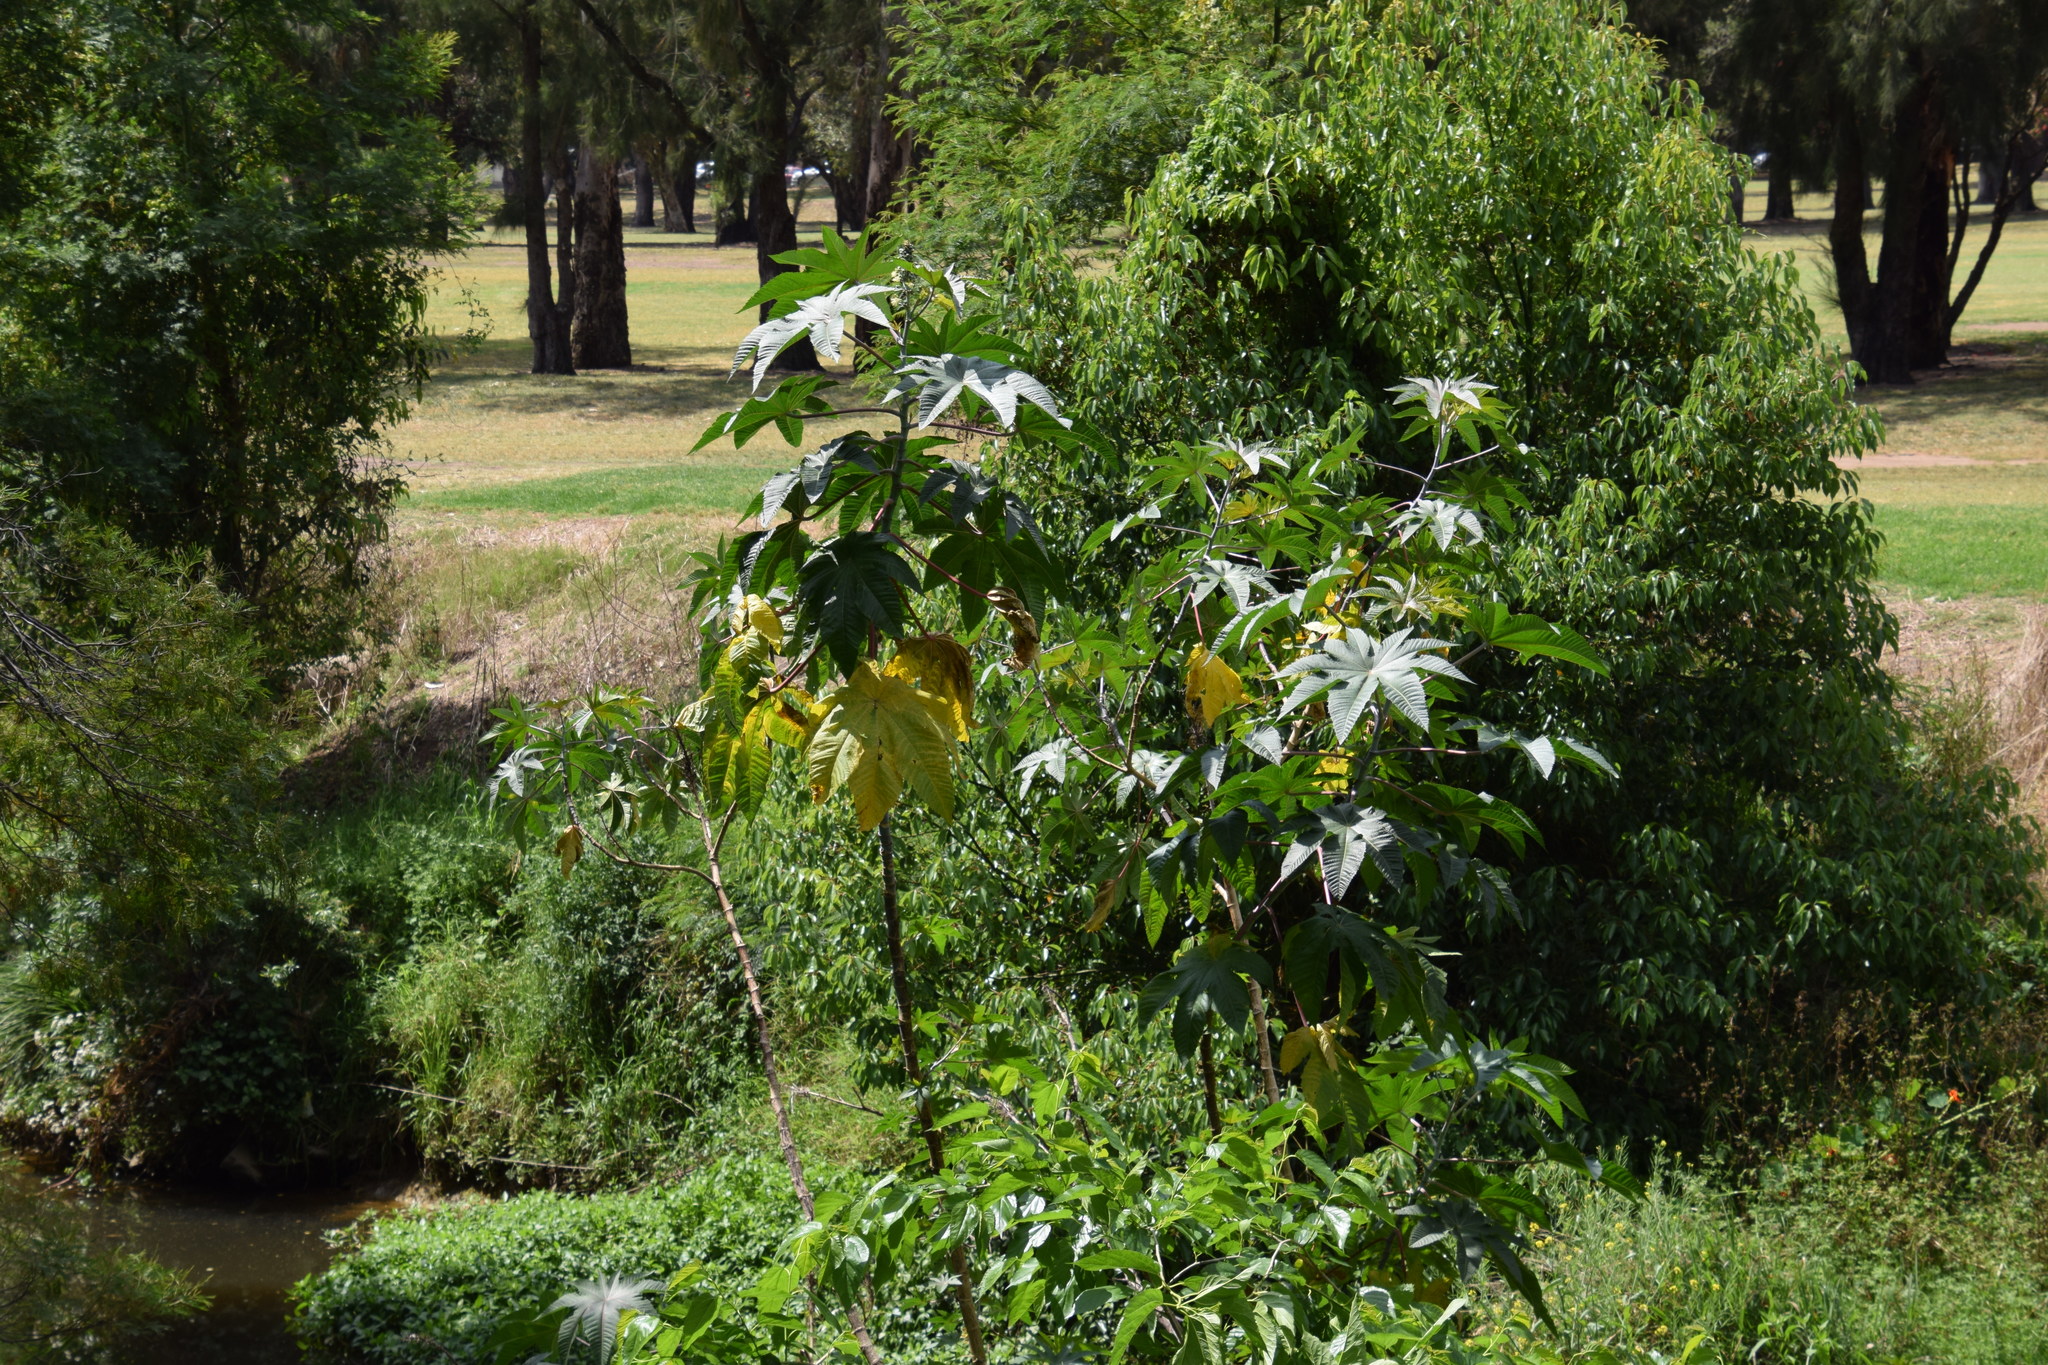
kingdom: Plantae
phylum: Tracheophyta
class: Magnoliopsida
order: Malpighiales
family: Euphorbiaceae
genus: Ricinus
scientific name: Ricinus communis
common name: Castor-oil-plant
